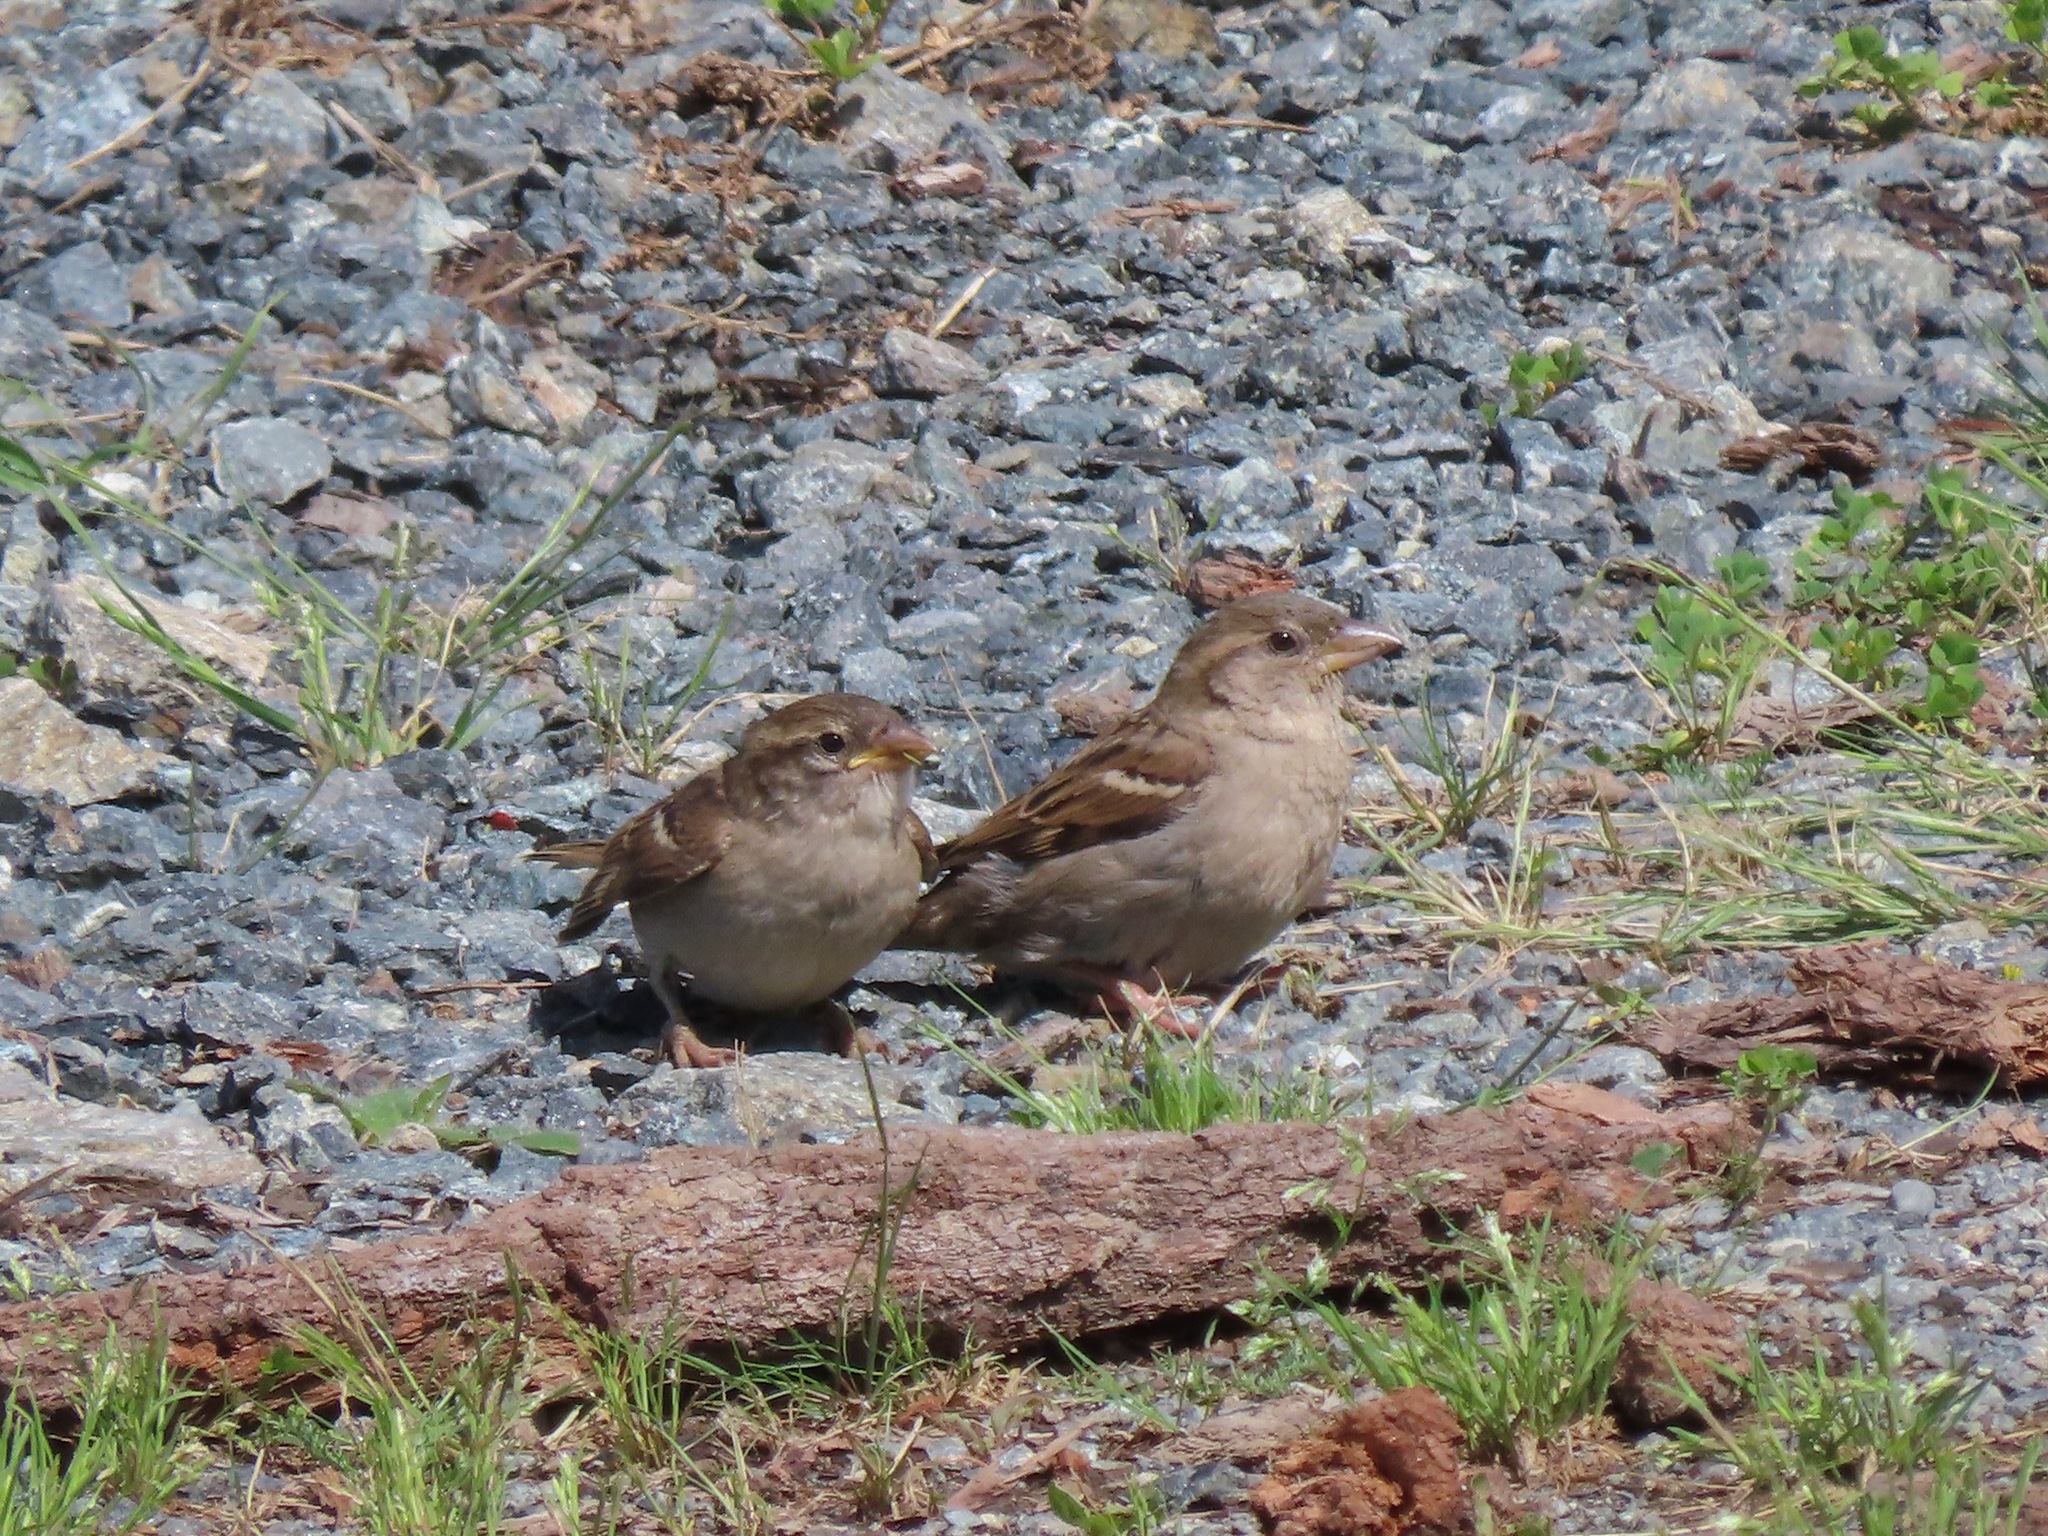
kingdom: Animalia
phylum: Chordata
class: Aves
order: Passeriformes
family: Passeridae
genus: Passer
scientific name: Passer domesticus
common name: House sparrow
